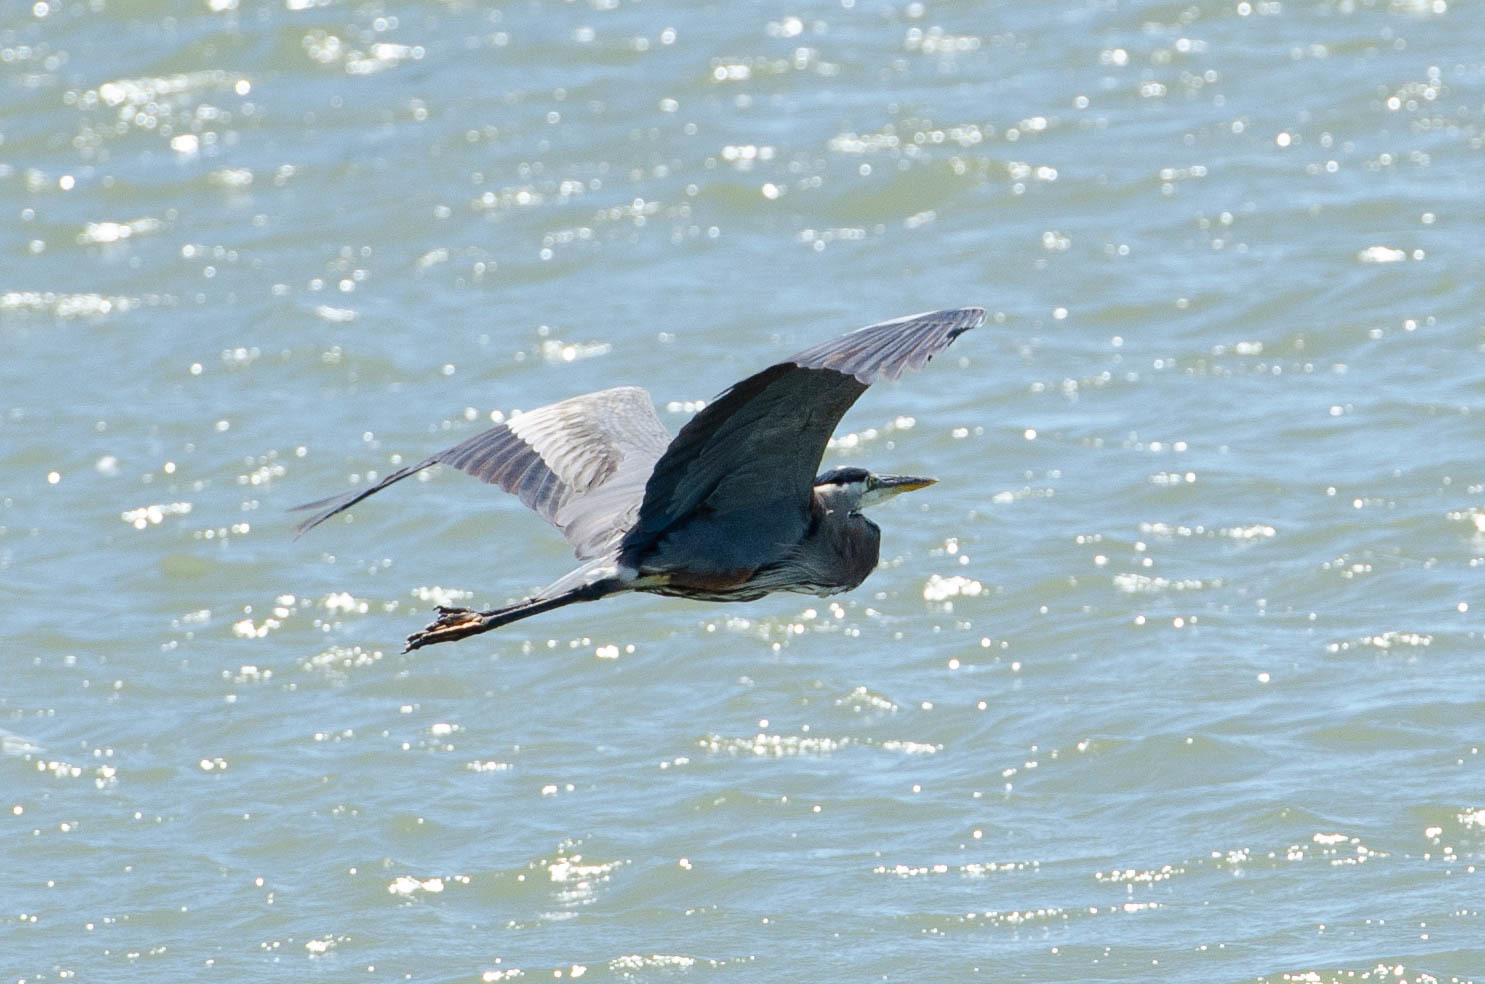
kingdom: Animalia
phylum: Chordata
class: Aves
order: Pelecaniformes
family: Ardeidae
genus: Ardea
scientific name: Ardea herodias
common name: Great blue heron
